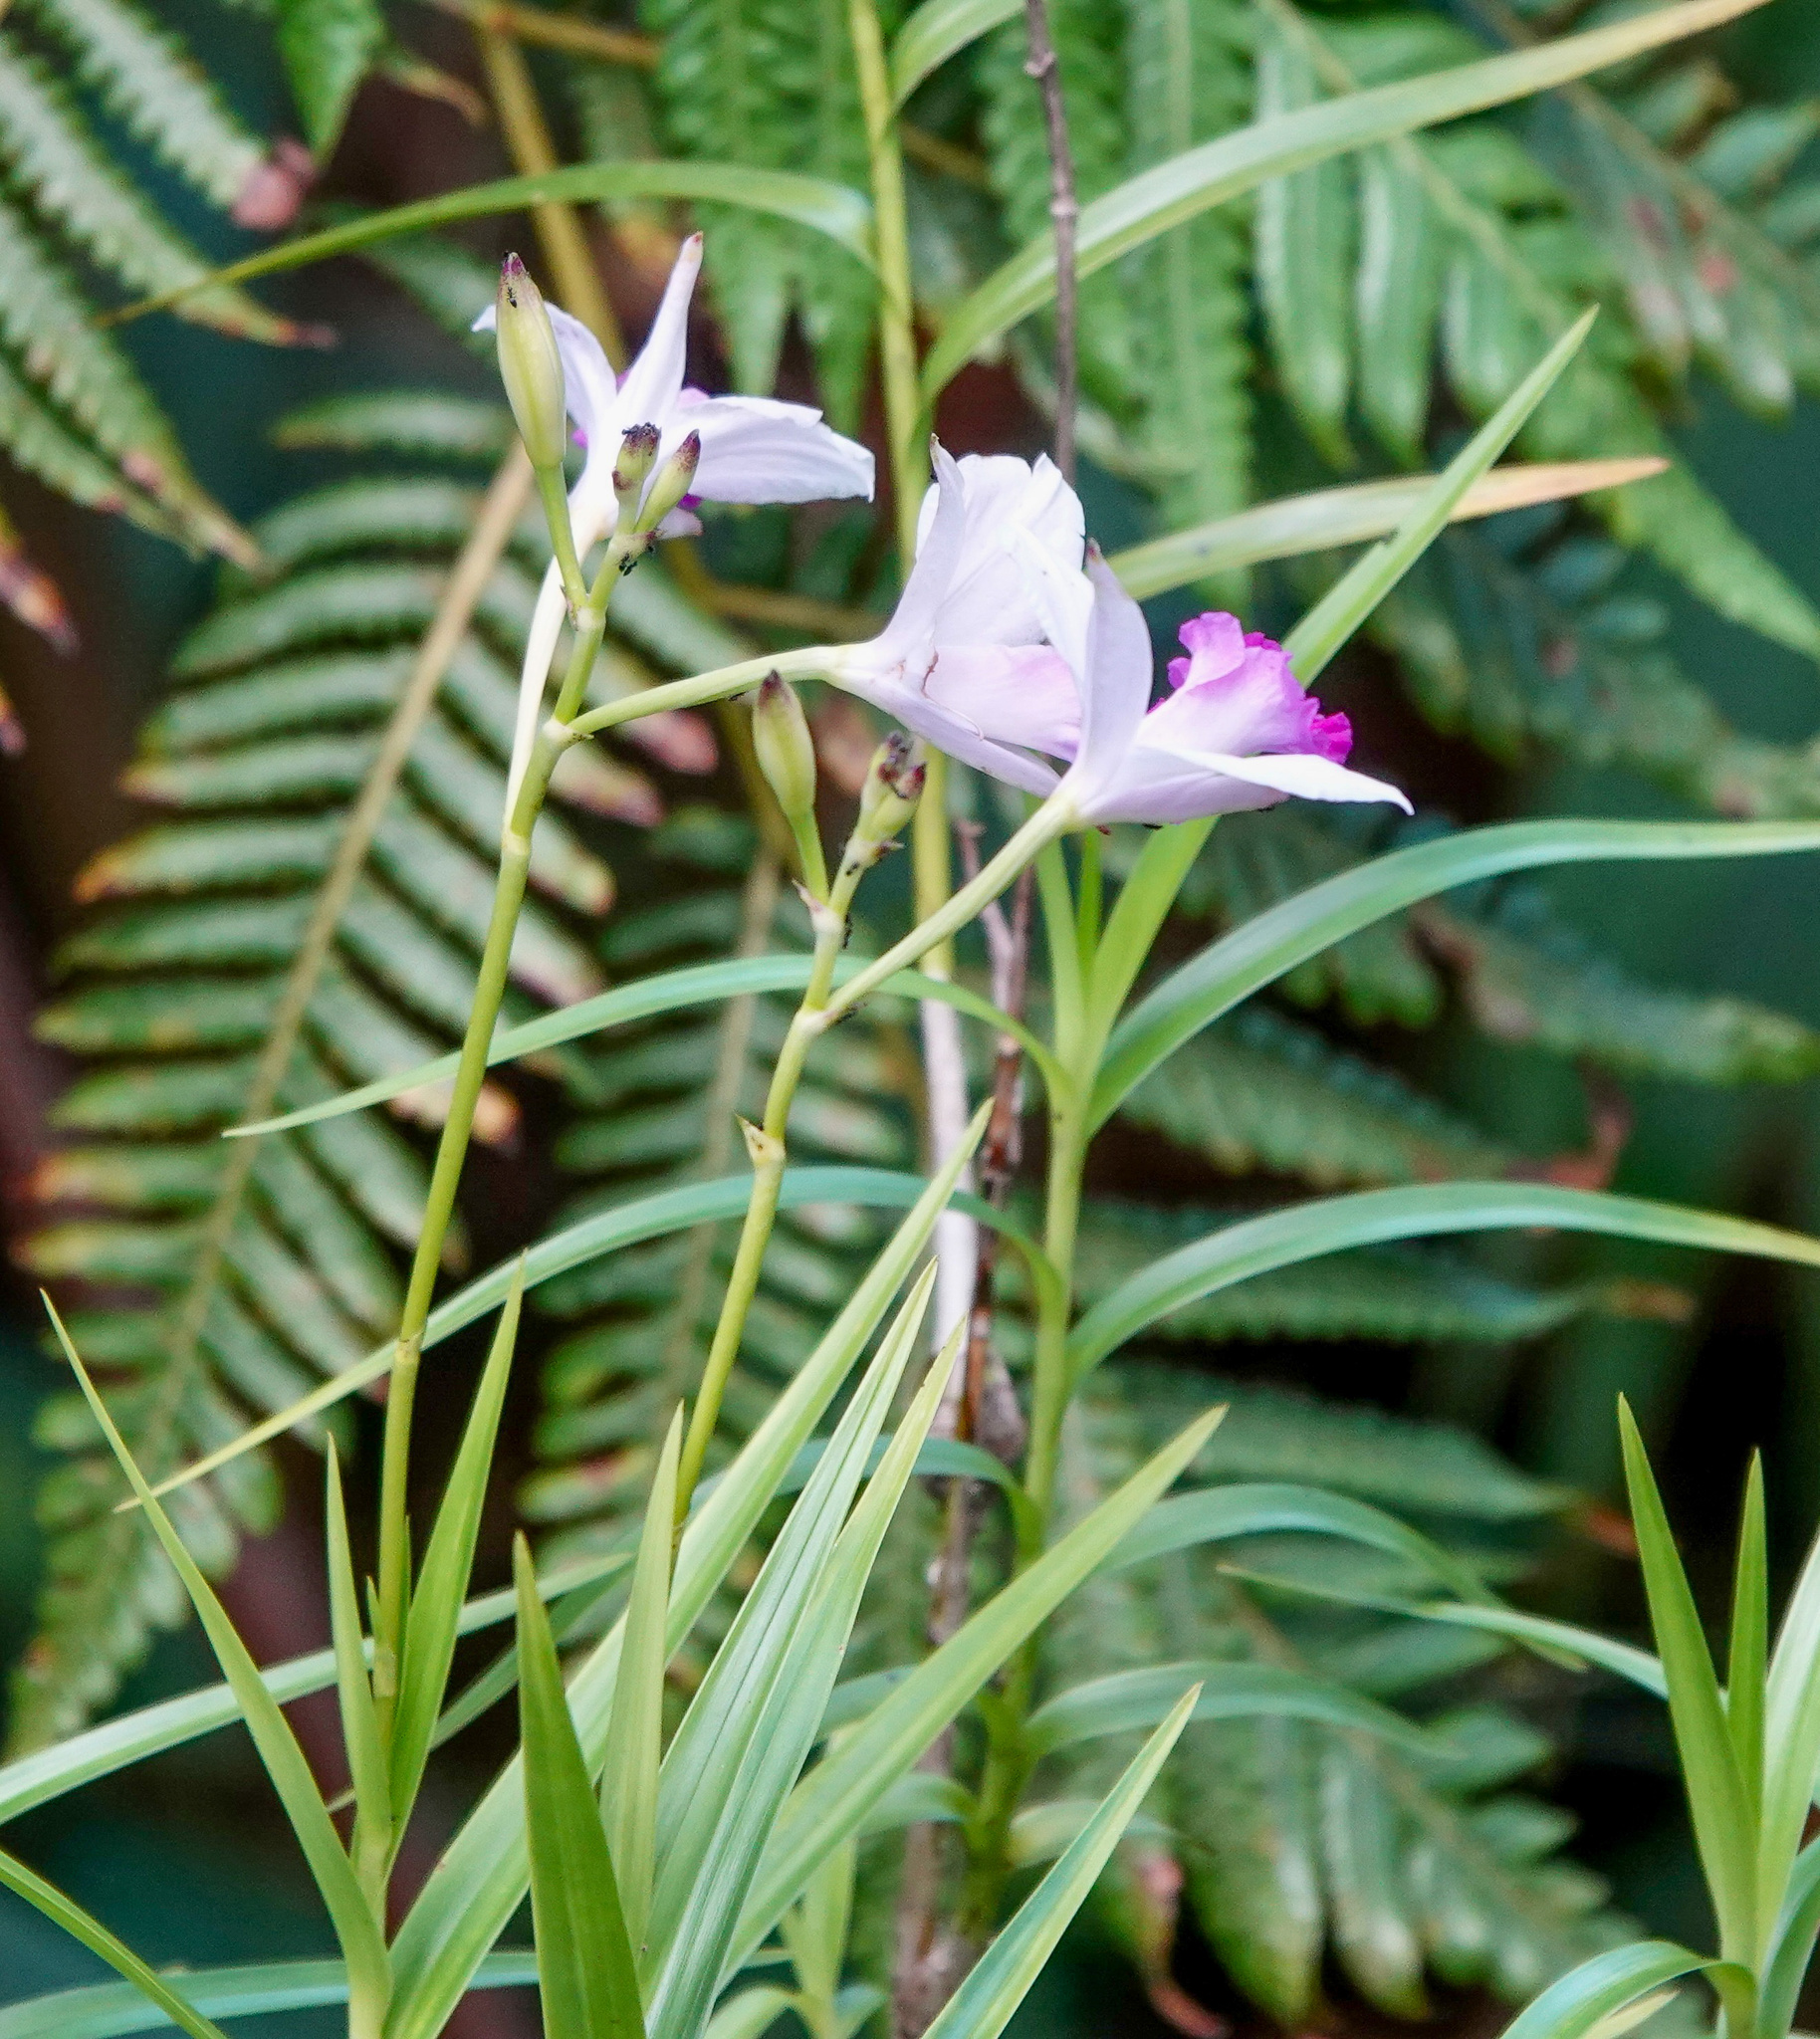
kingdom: Plantae
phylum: Tracheophyta
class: Liliopsida
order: Asparagales
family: Orchidaceae
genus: Arundina
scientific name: Arundina graminifolia
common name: Bamboo orchid
